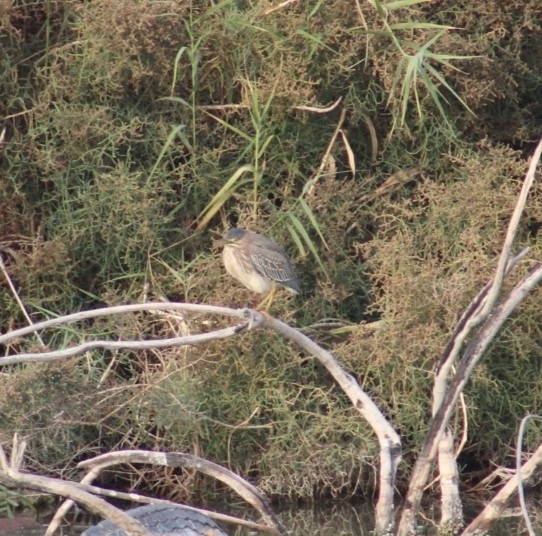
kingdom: Animalia
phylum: Chordata
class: Aves
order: Pelecaniformes
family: Ardeidae
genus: Butorides
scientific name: Butorides virescens
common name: Green heron
